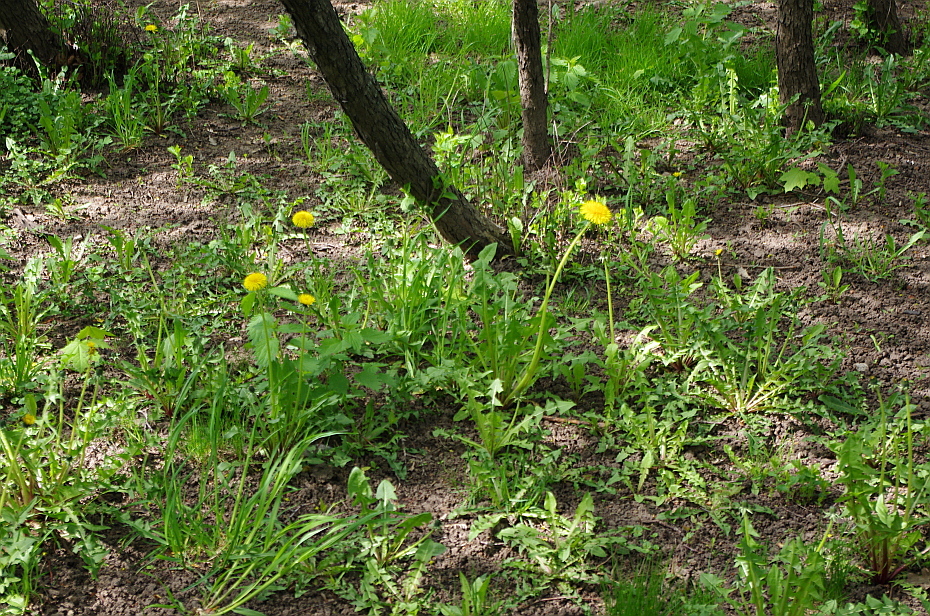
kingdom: Plantae
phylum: Tracheophyta
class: Magnoliopsida
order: Asterales
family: Asteraceae
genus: Taraxacum
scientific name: Taraxacum officinale
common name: Common dandelion
